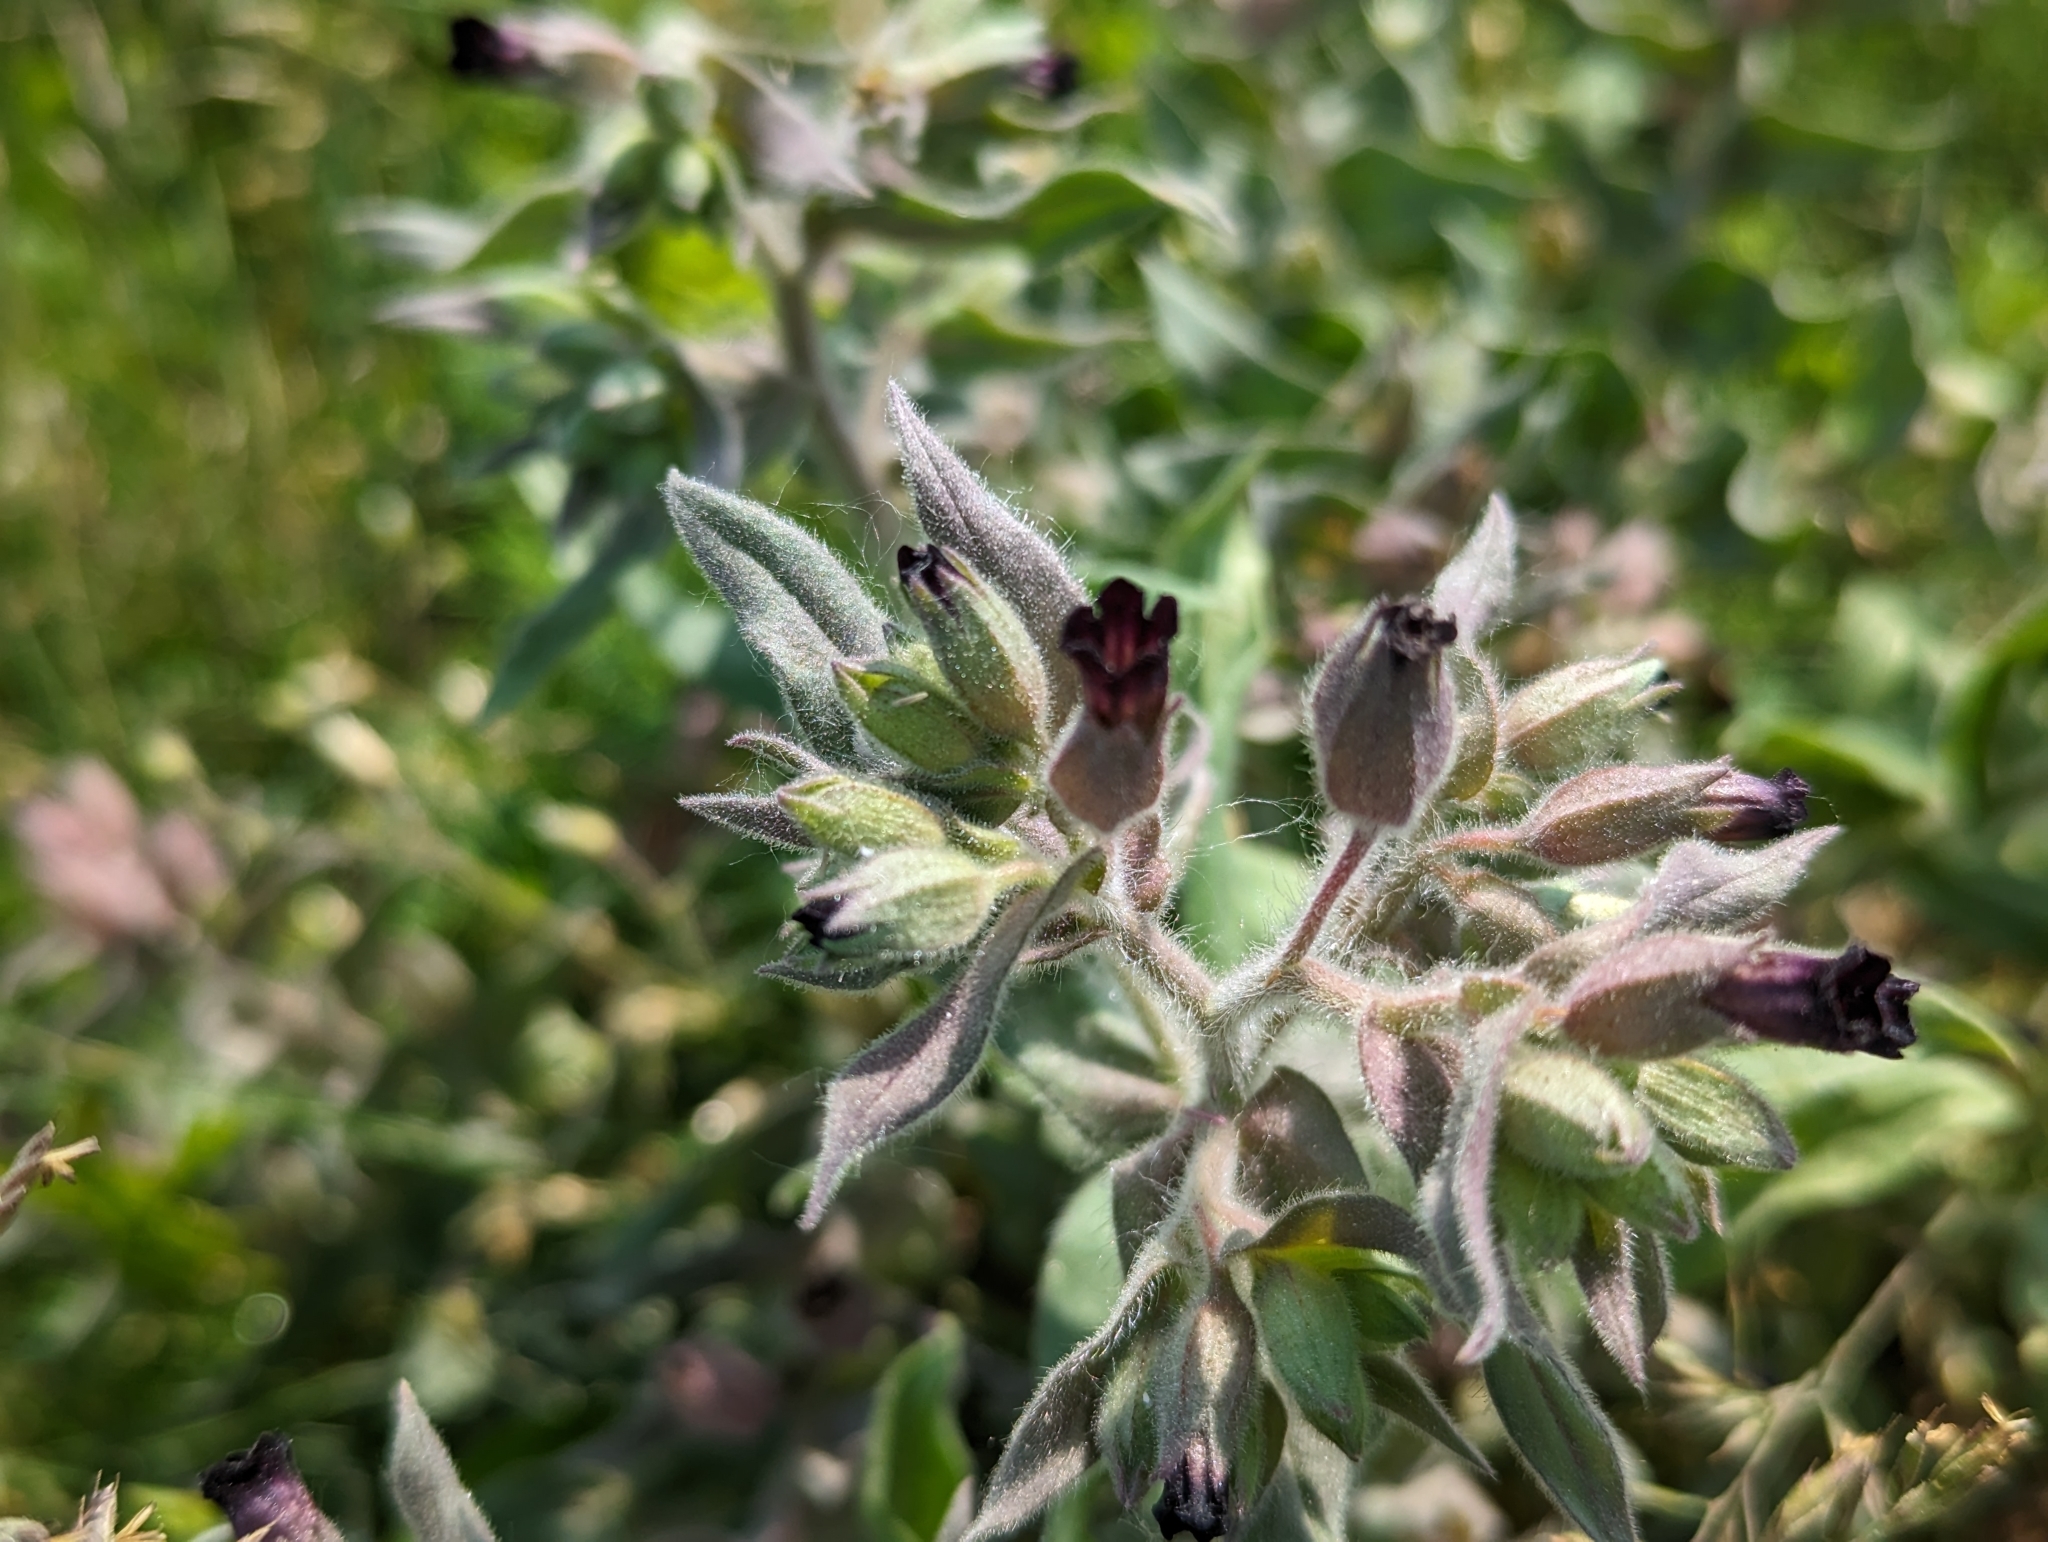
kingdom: Plantae
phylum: Tracheophyta
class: Magnoliopsida
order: Boraginales
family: Boraginaceae
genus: Nonea
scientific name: Nonea pulla
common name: Brown nonea
